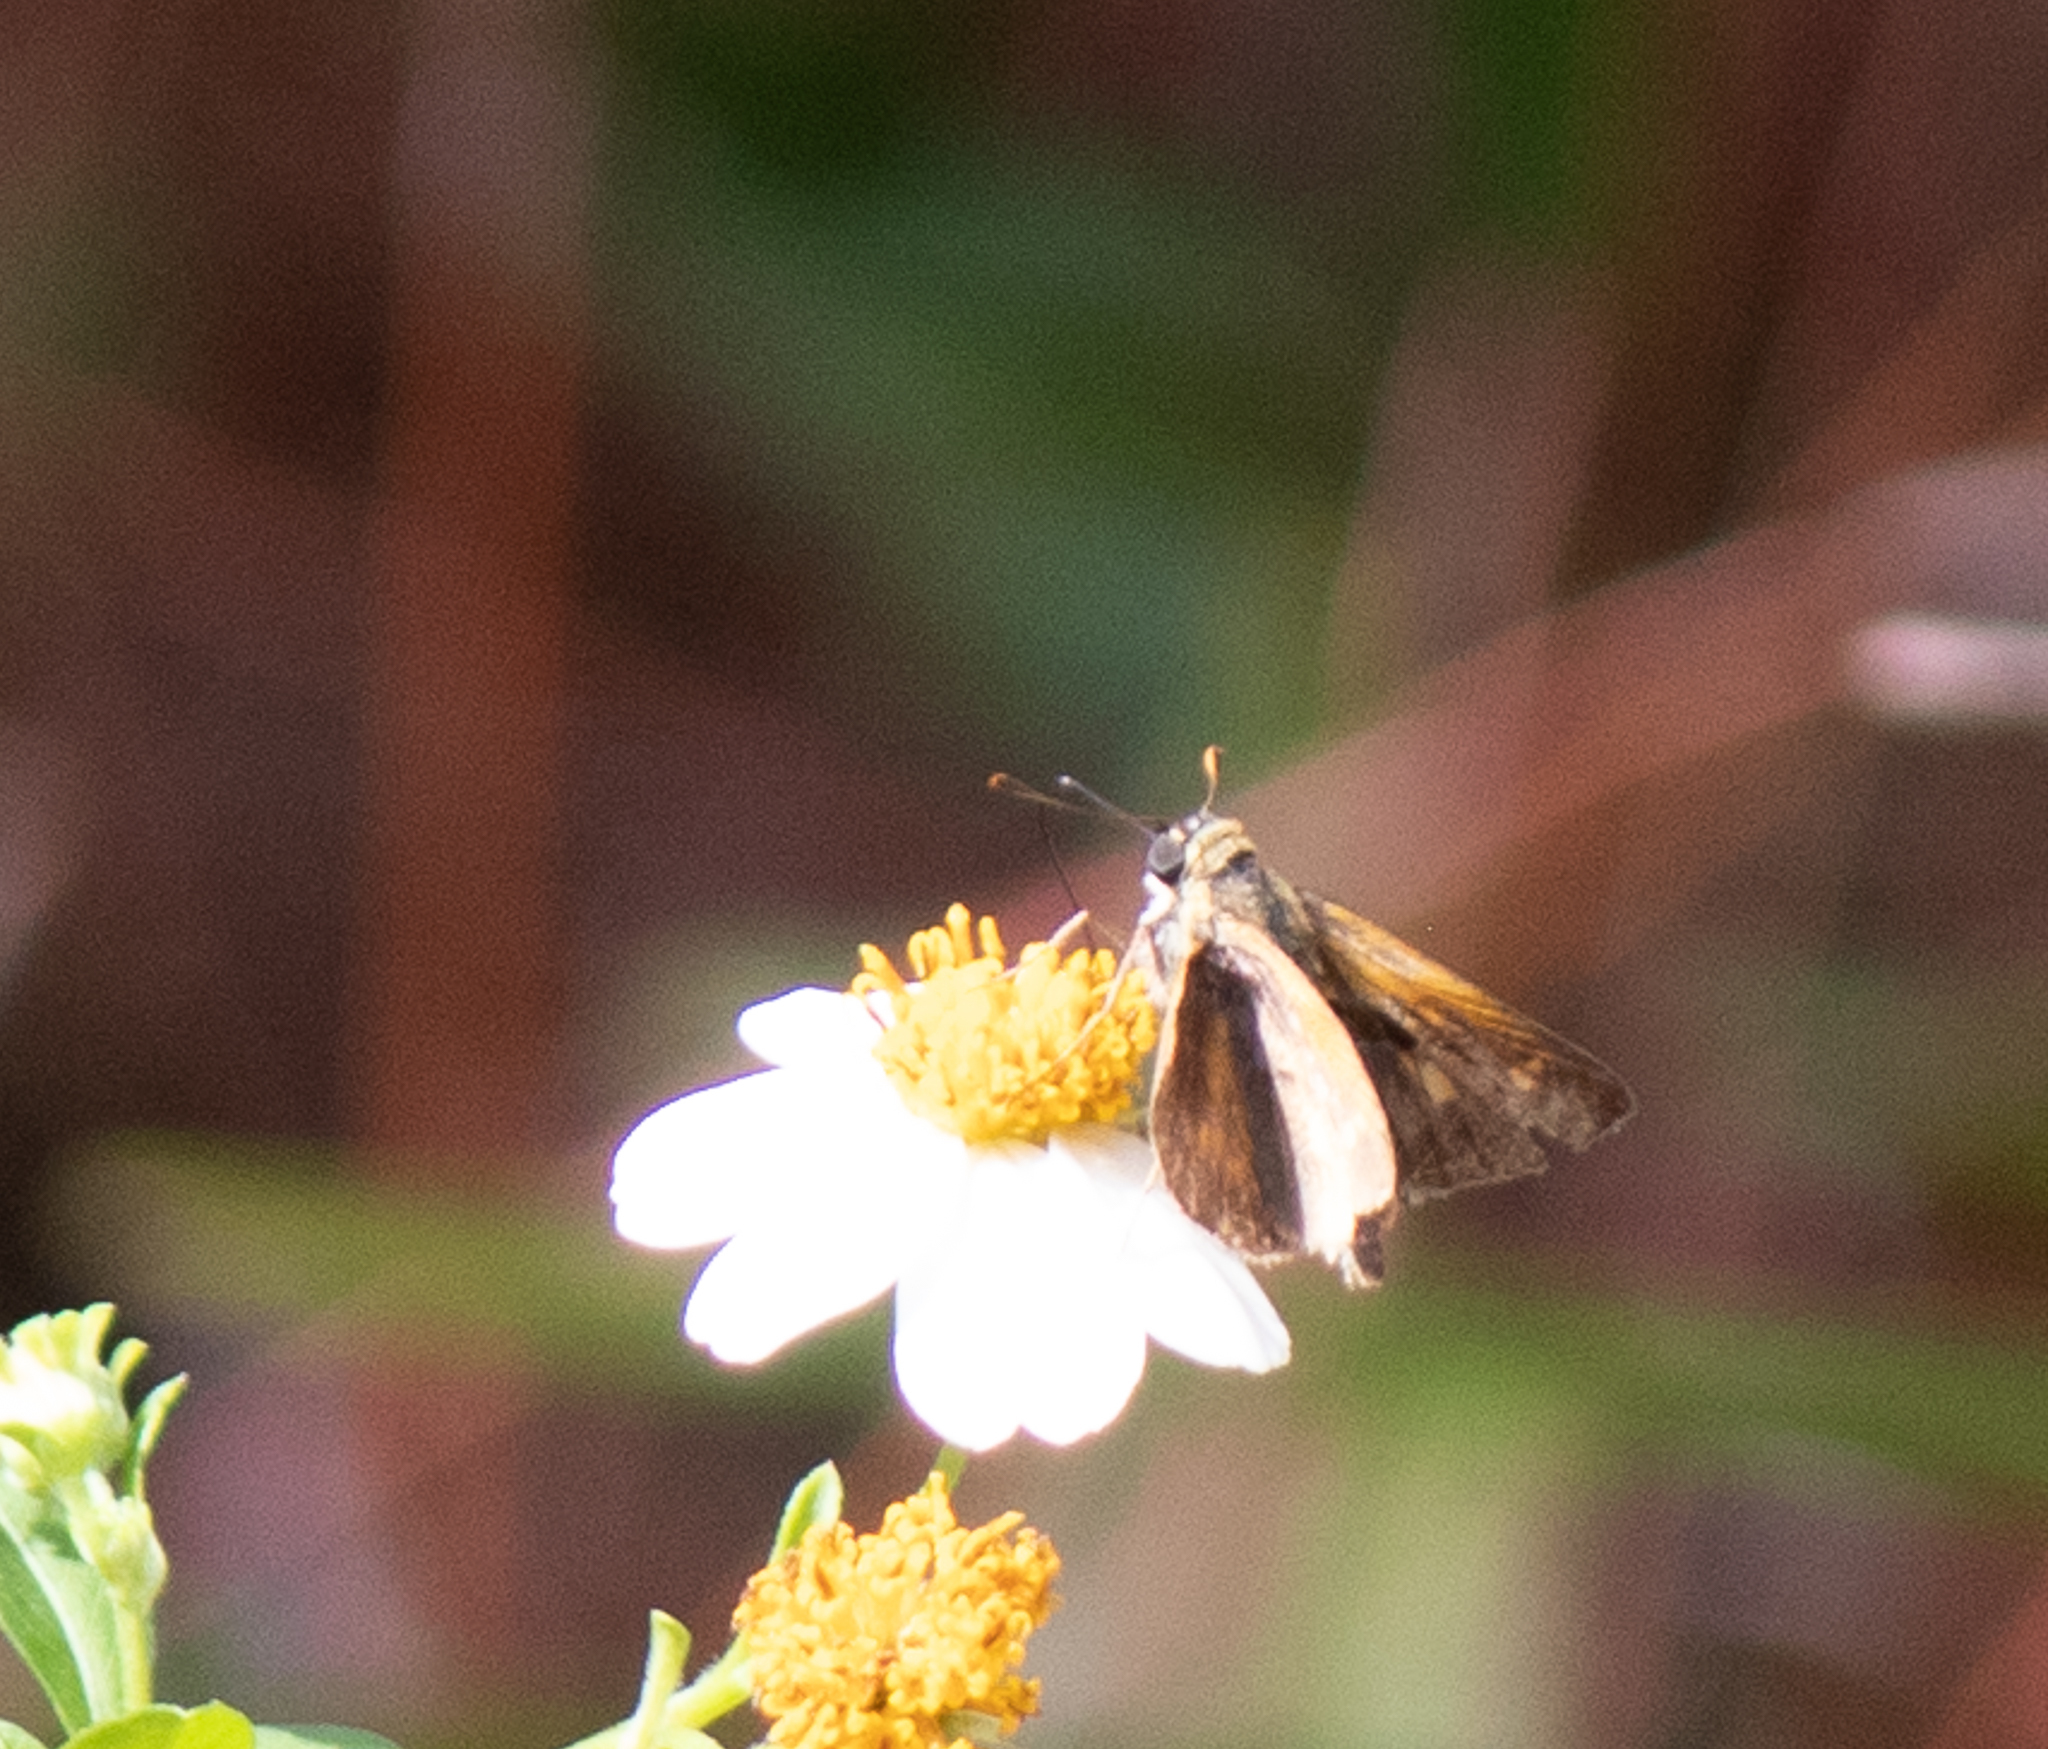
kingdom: Animalia
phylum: Arthropoda
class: Insecta
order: Lepidoptera
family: Hesperiidae
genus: Polites
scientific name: Polites otho
